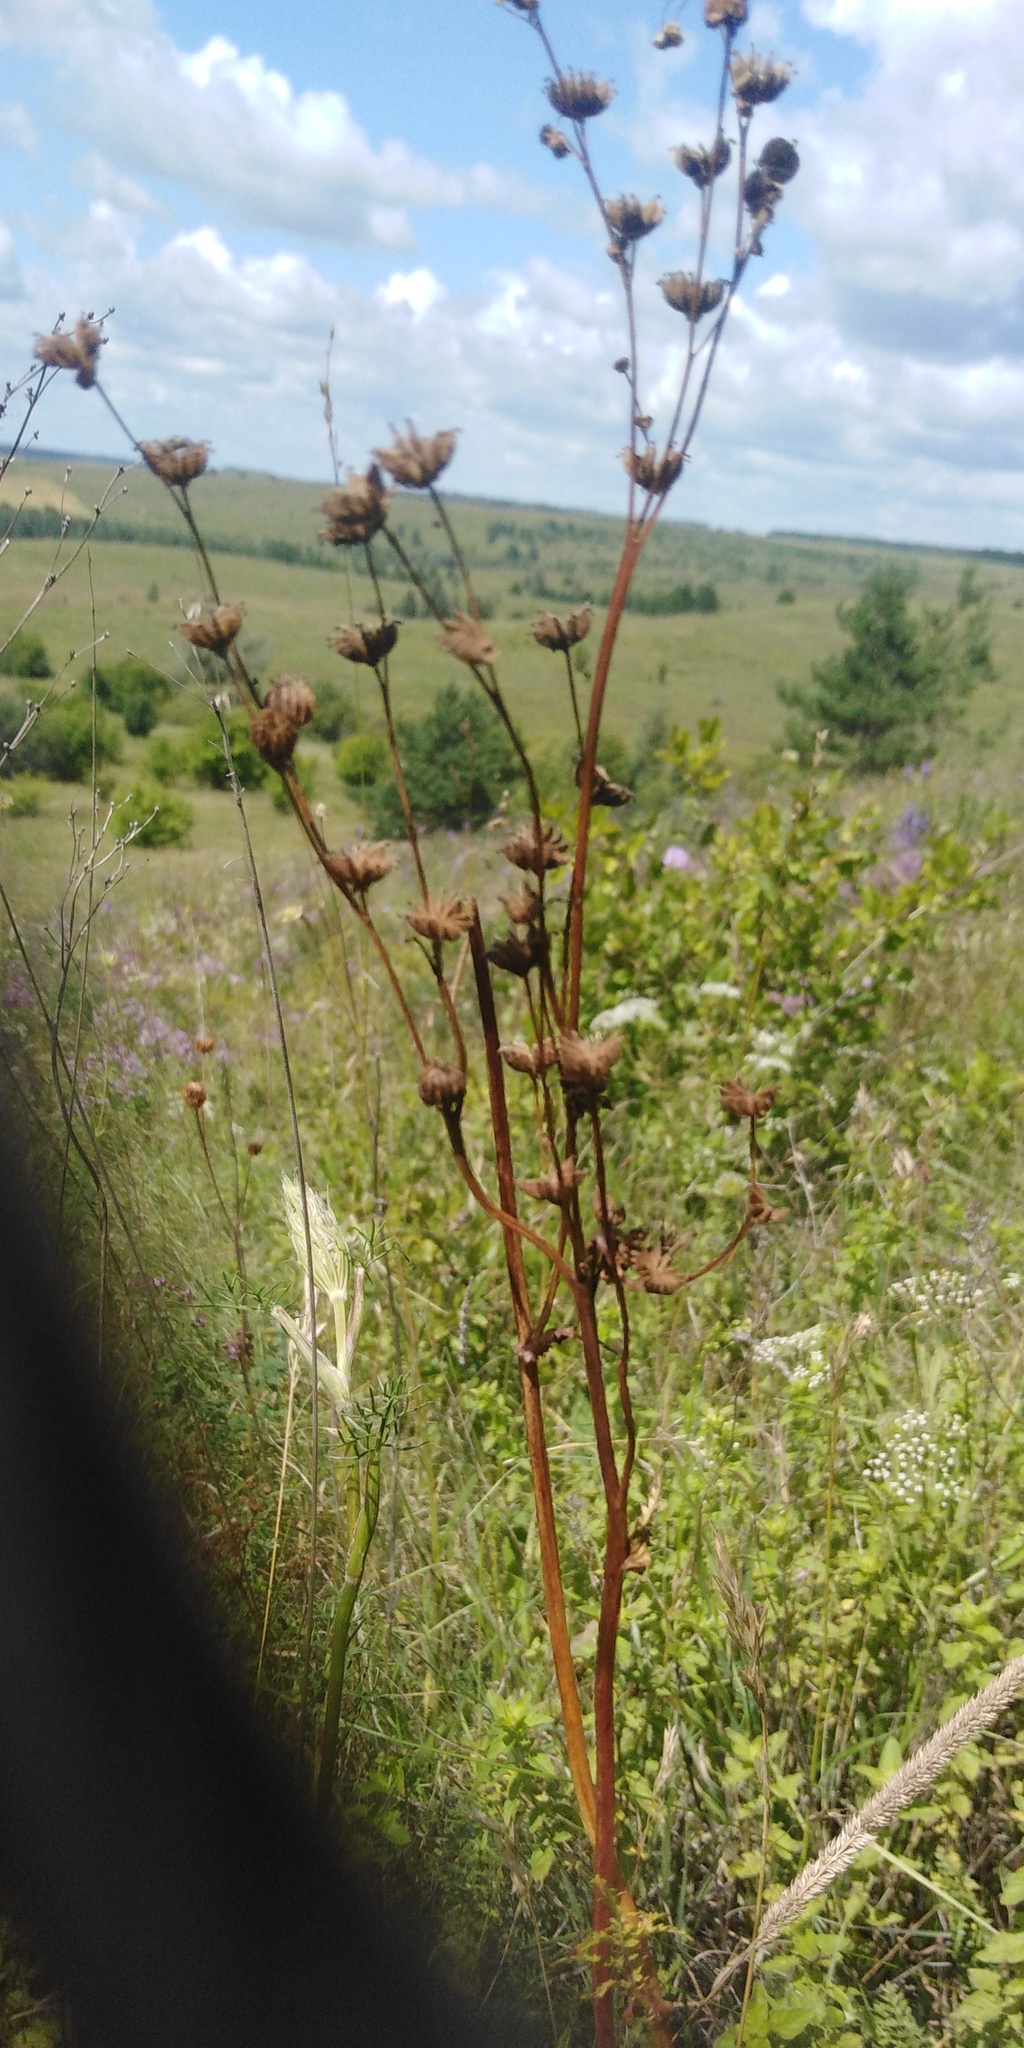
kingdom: Plantae
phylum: Tracheophyta
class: Magnoliopsida
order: Rosales
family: Rosaceae
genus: Filipendula
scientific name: Filipendula vulgaris
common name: Dropwort
